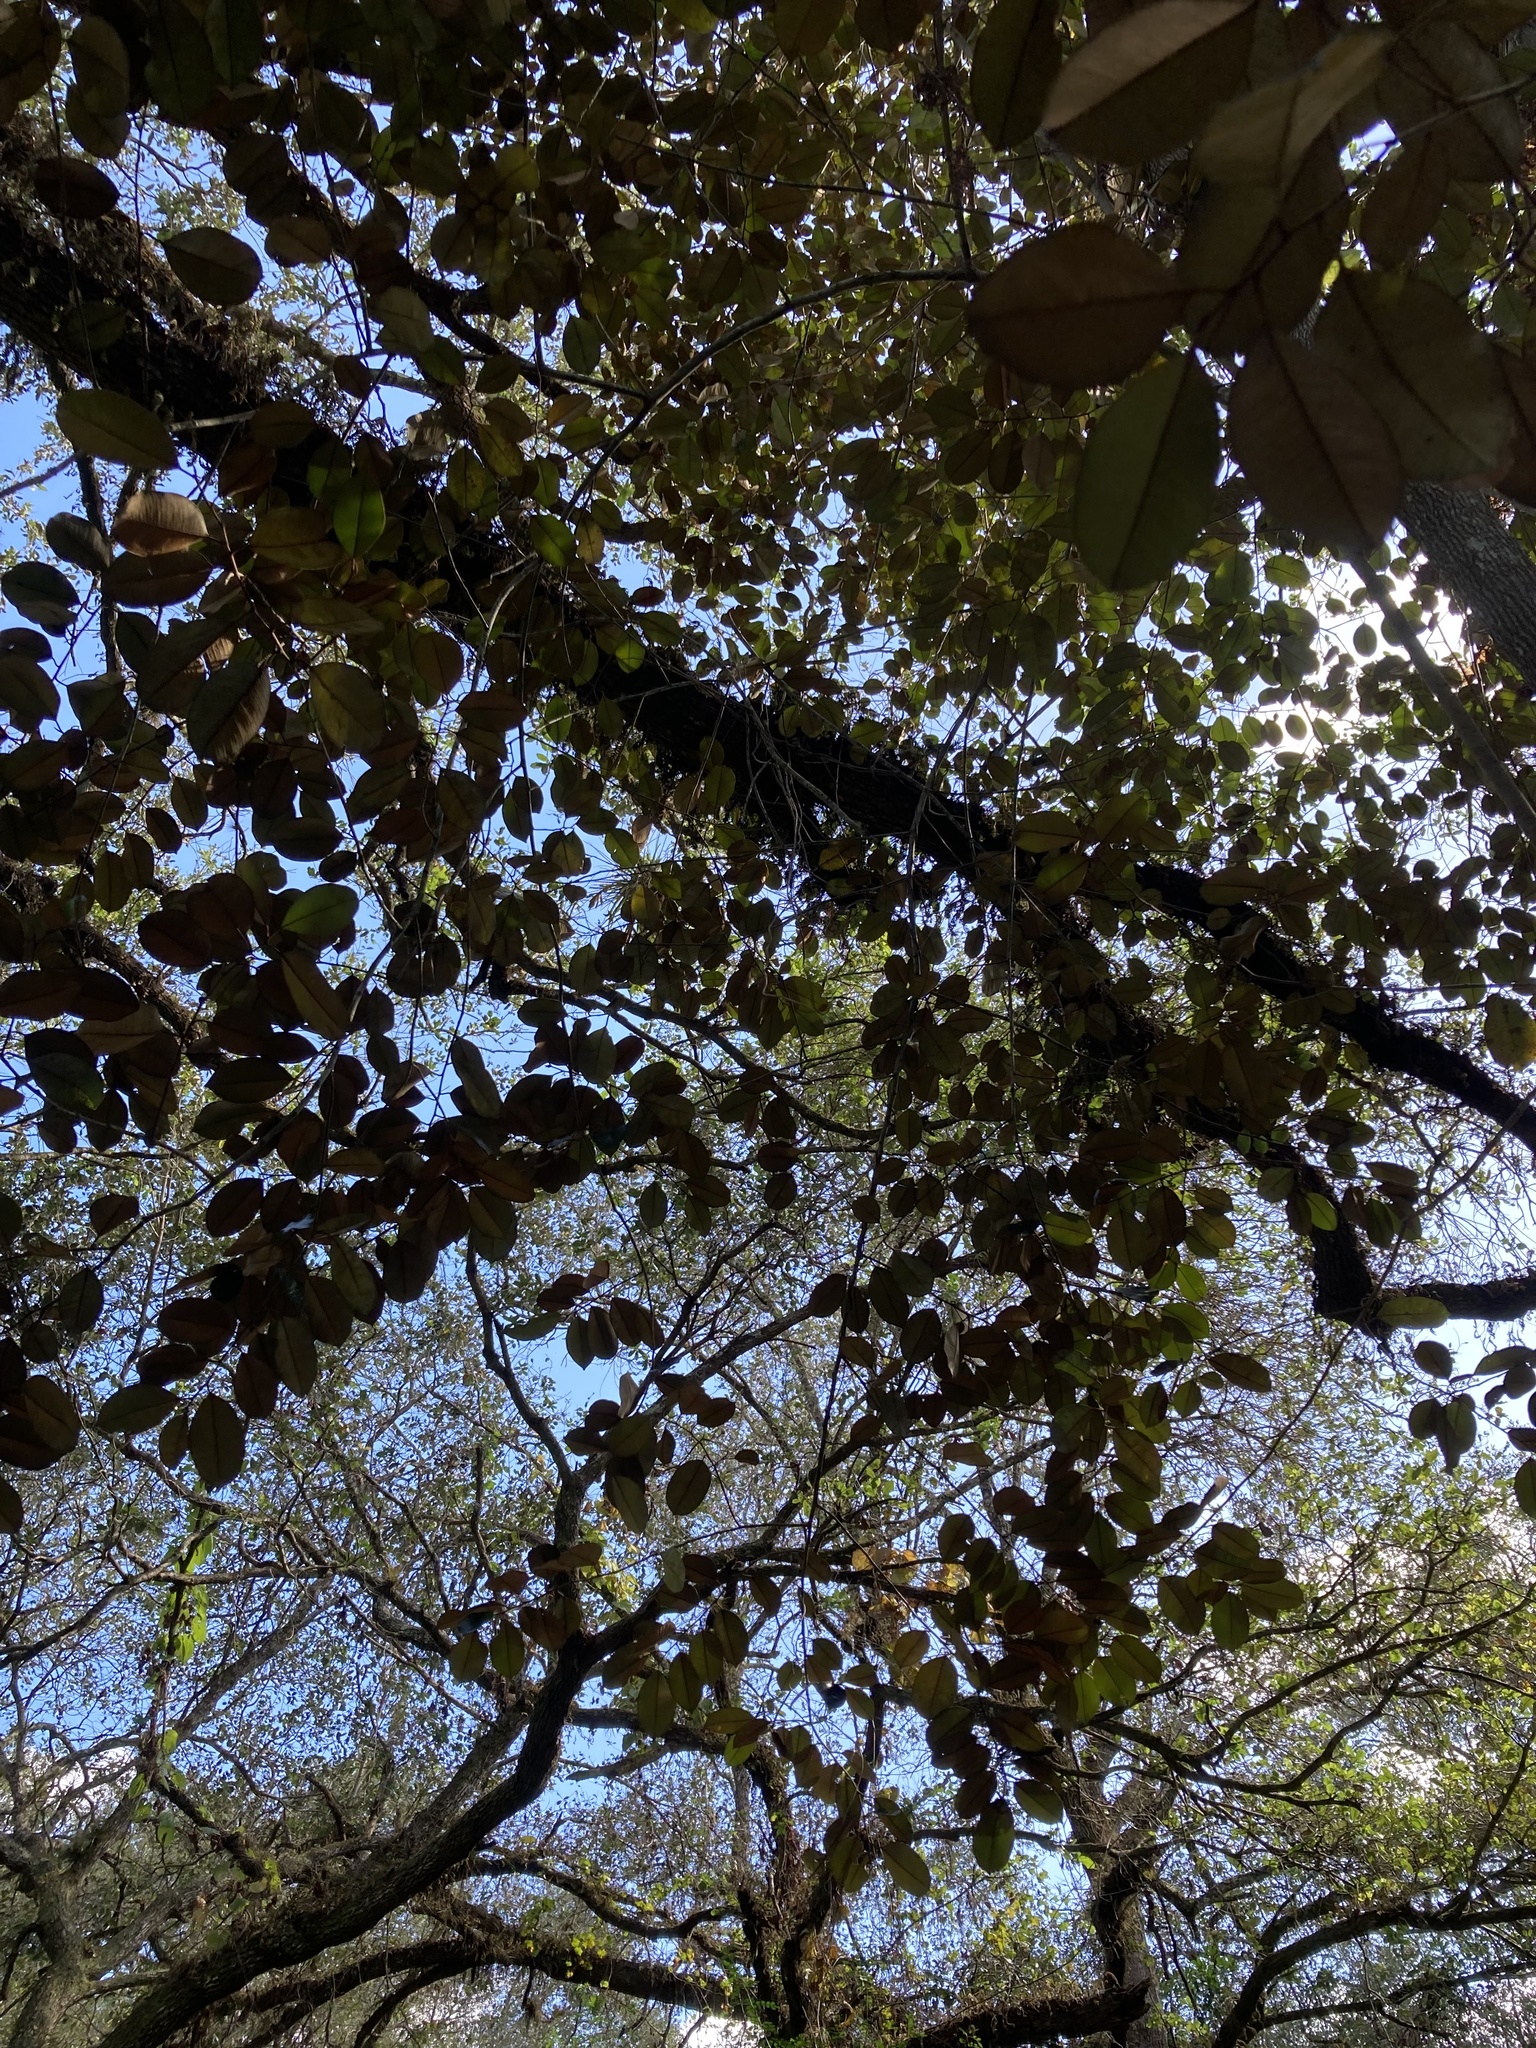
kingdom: Plantae
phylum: Tracheophyta
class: Magnoliopsida
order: Ericales
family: Sapotaceae
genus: Chrysophyllum
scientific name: Chrysophyllum oliviforme
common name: Satinleaf
